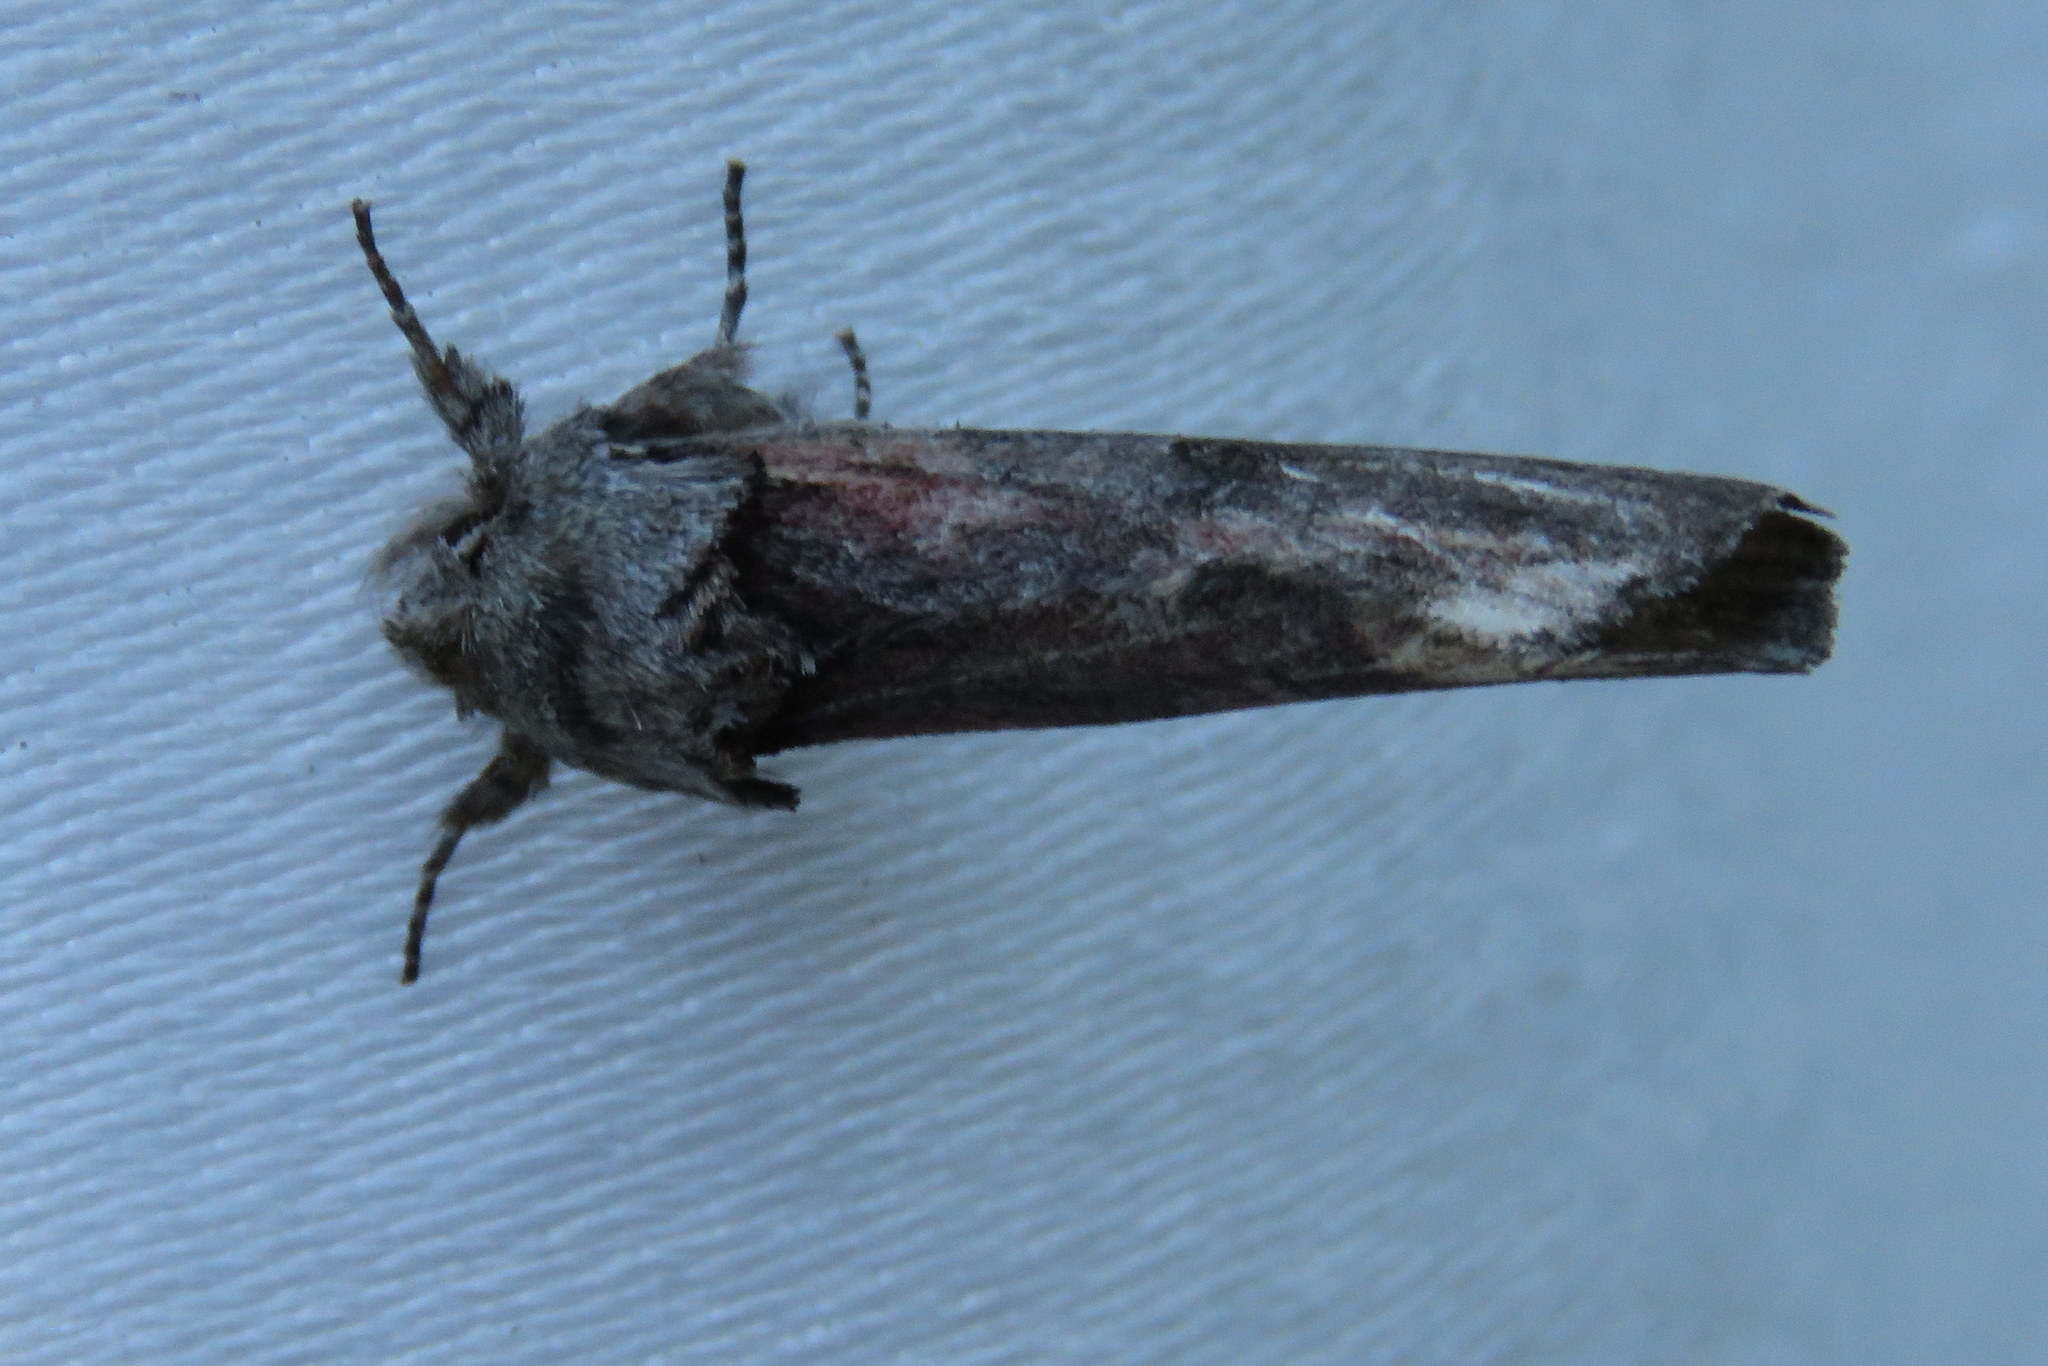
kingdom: Animalia
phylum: Arthropoda
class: Insecta
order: Lepidoptera
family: Notodontidae
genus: Schizura
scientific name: Schizura
